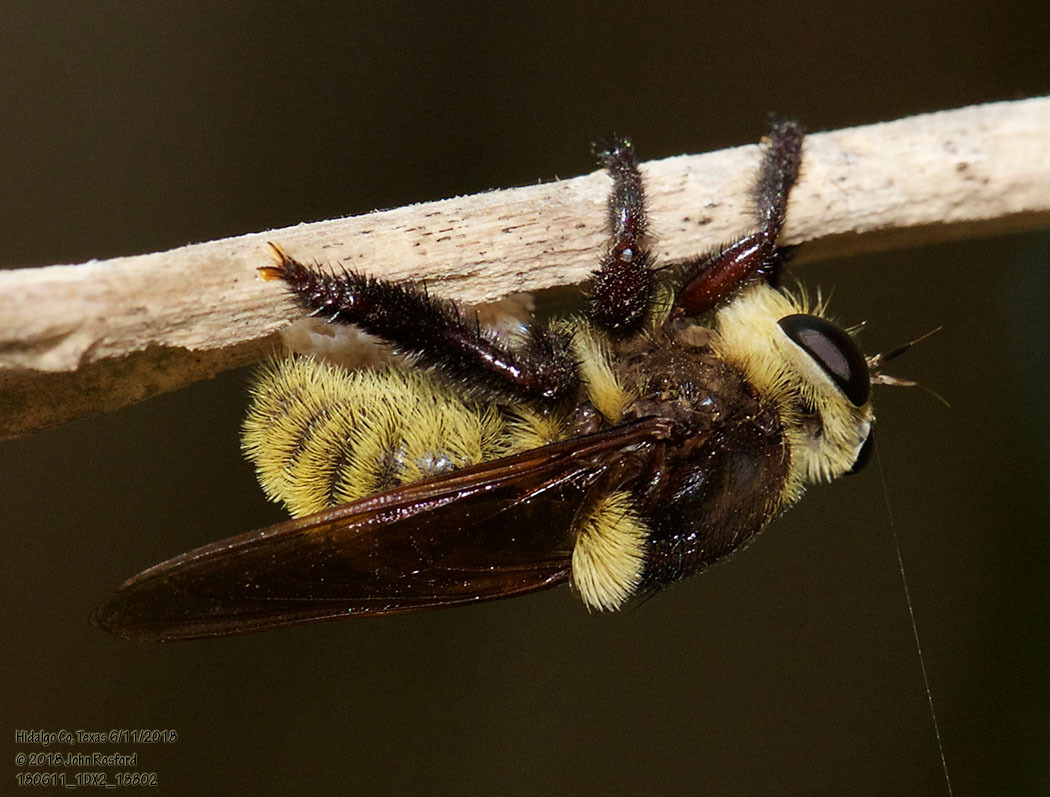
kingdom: Animalia
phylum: Arthropoda
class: Insecta
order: Diptera
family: Asilidae
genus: Mallophora
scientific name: Mallophora fautrix
